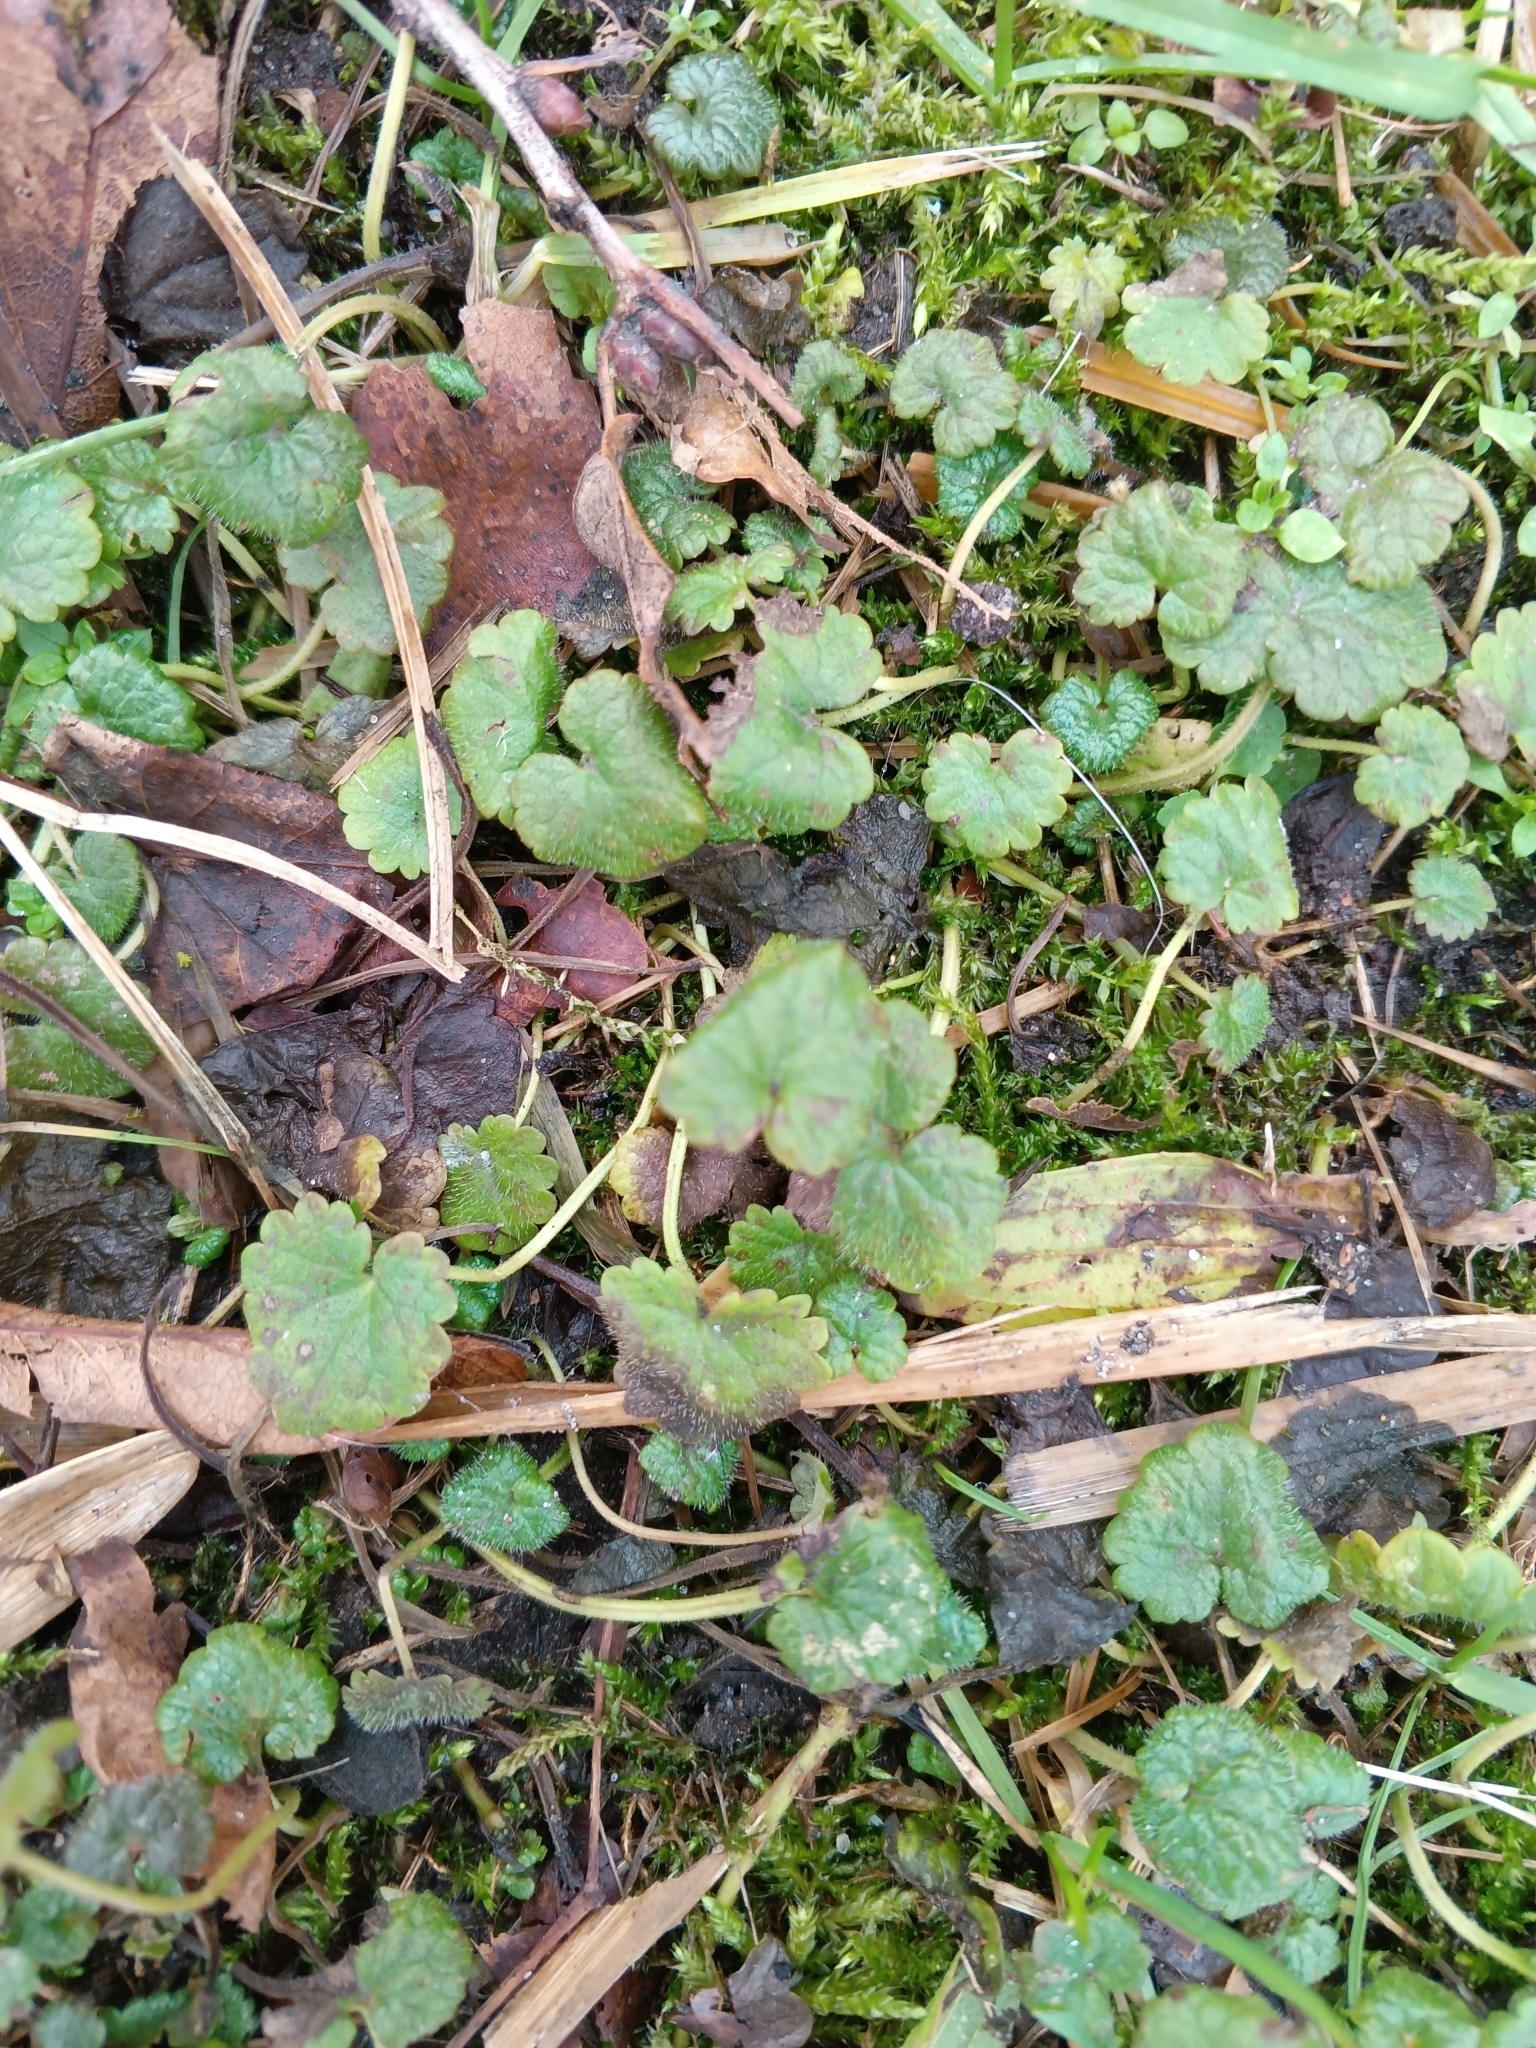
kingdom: Plantae
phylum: Tracheophyta
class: Magnoliopsida
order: Lamiales
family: Lamiaceae
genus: Glechoma
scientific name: Glechoma hederacea
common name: Ground ivy
